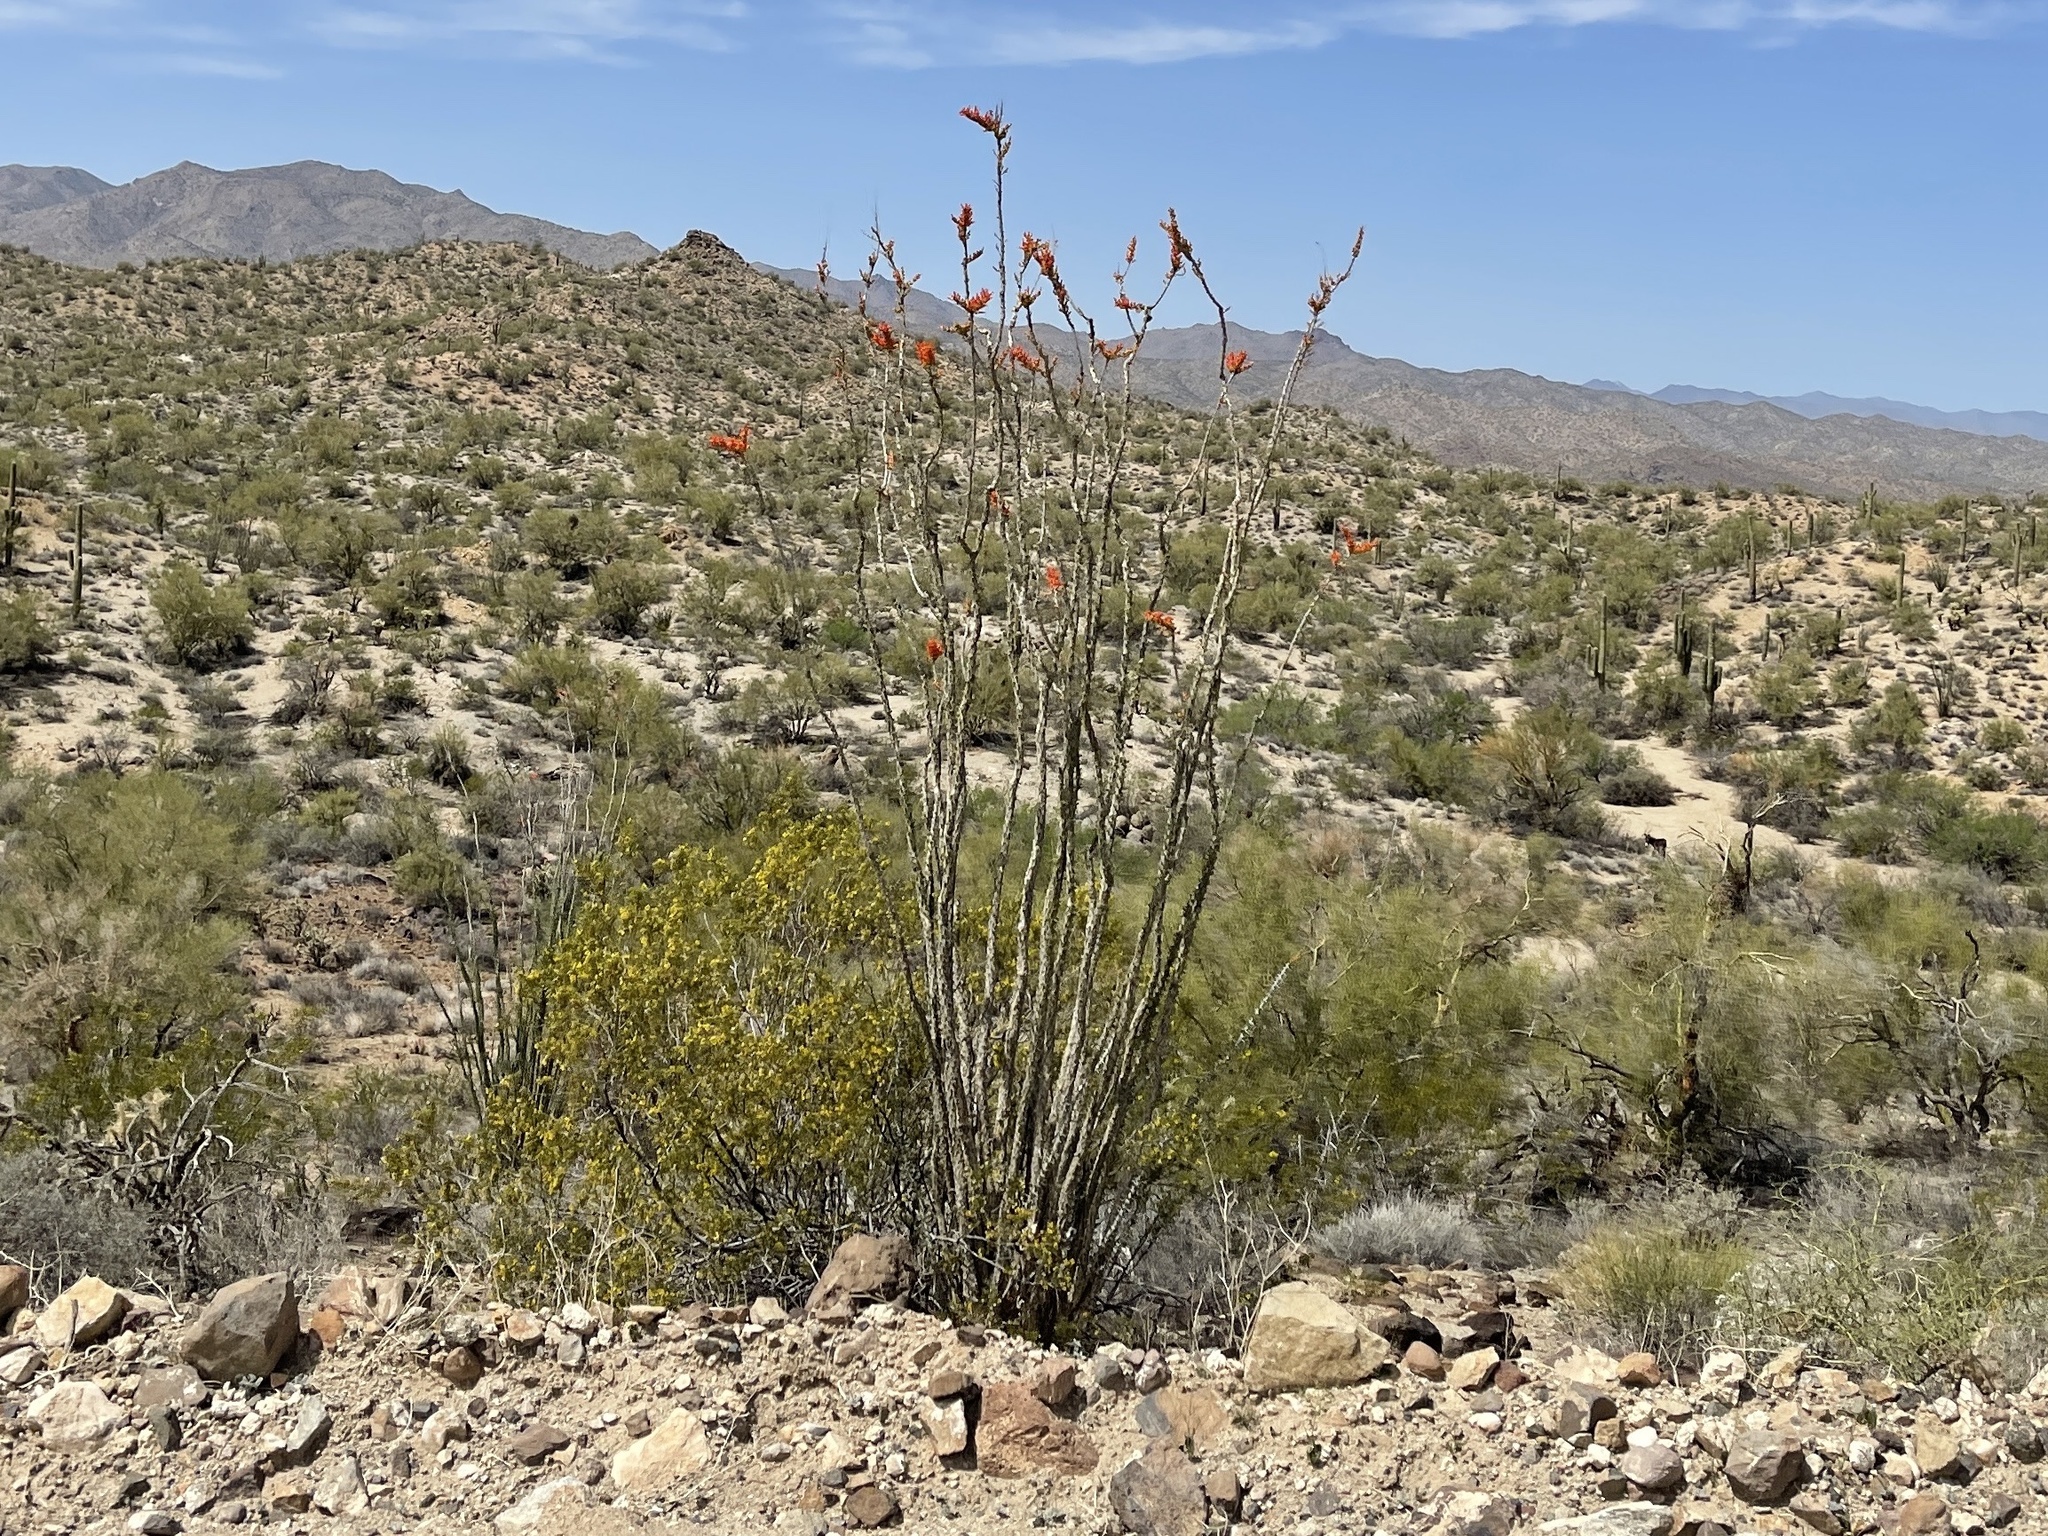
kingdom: Plantae
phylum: Tracheophyta
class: Magnoliopsida
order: Ericales
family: Fouquieriaceae
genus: Fouquieria
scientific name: Fouquieria splendens
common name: Vine-cactus
